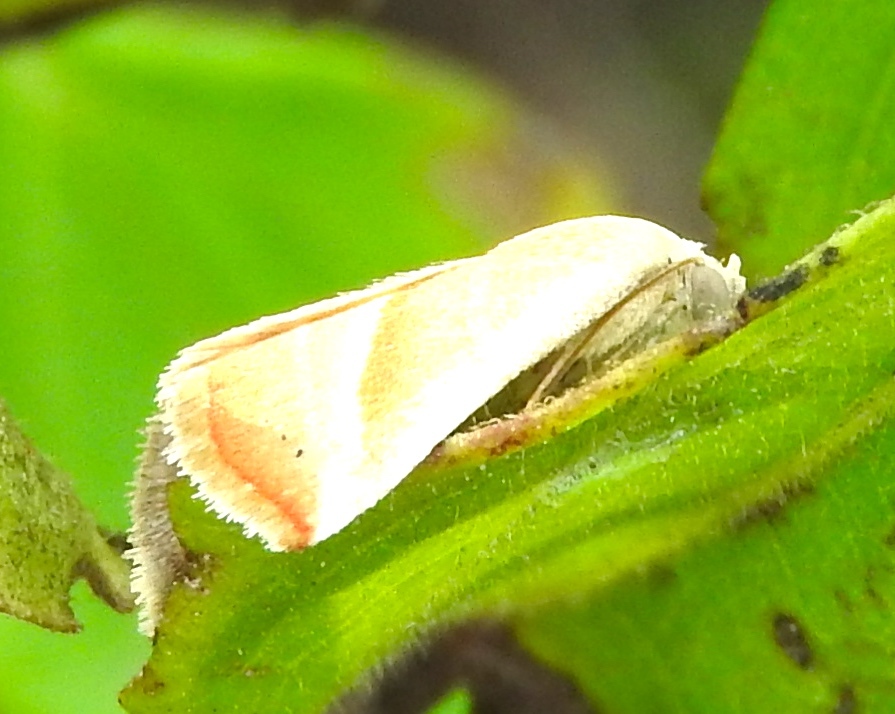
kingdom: Animalia
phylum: Arthropoda
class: Insecta
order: Lepidoptera
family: Noctuidae
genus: Eublemma
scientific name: Eublemma
